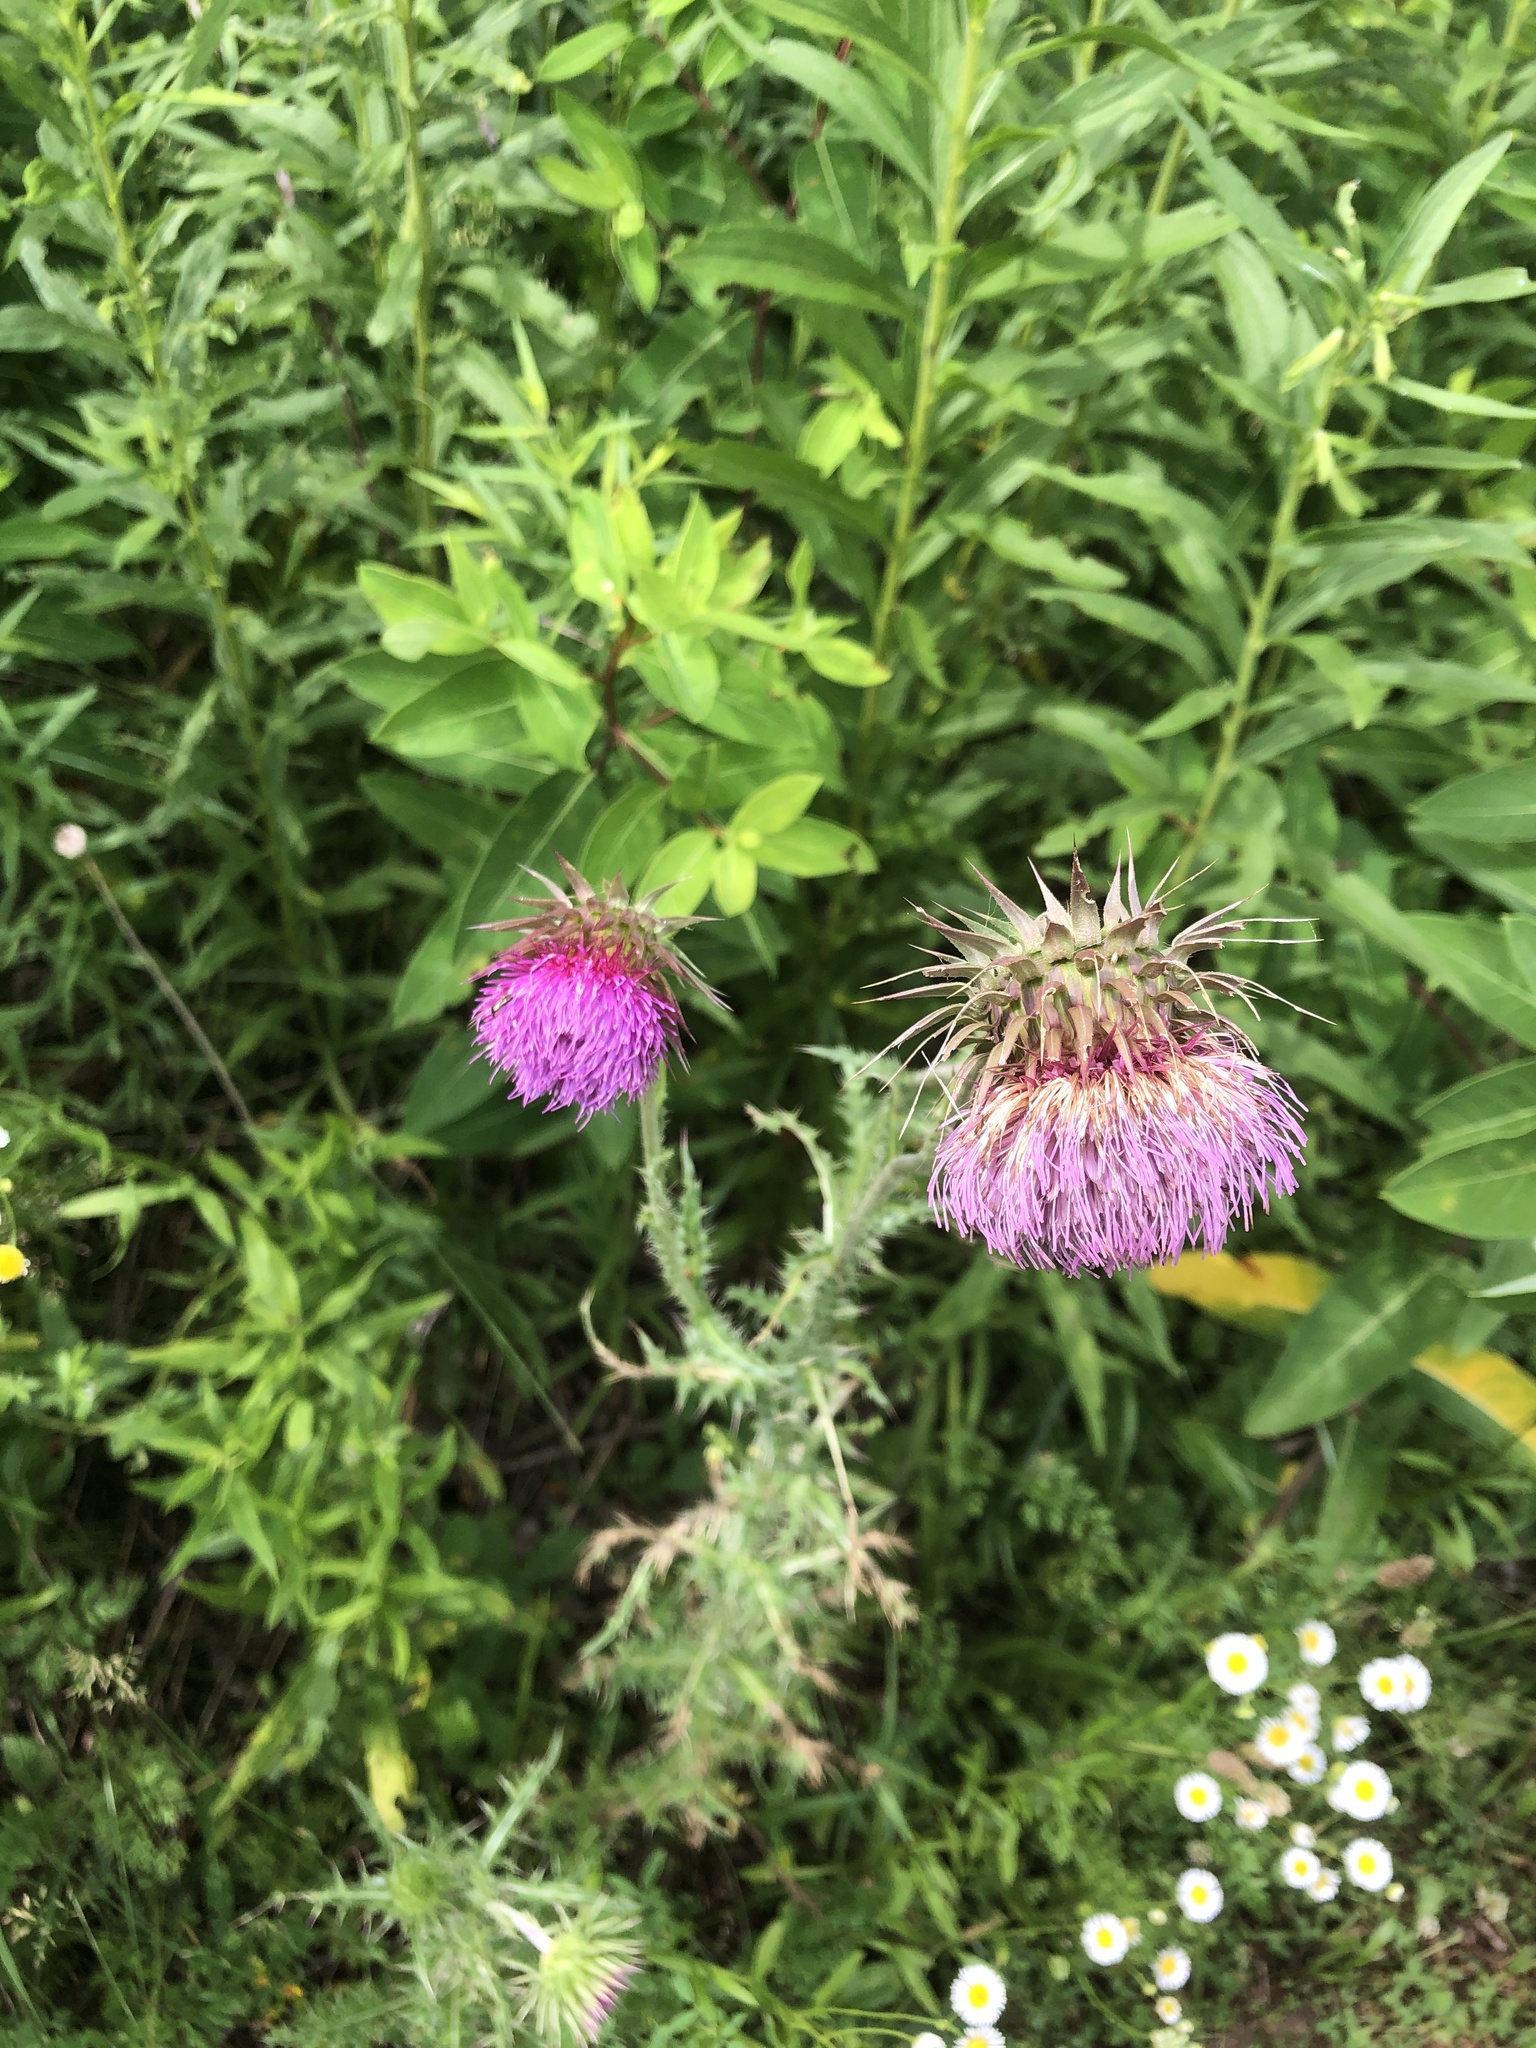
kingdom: Plantae
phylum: Tracheophyta
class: Magnoliopsida
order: Asterales
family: Asteraceae
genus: Carduus
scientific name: Carduus nutans
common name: Musk thistle
